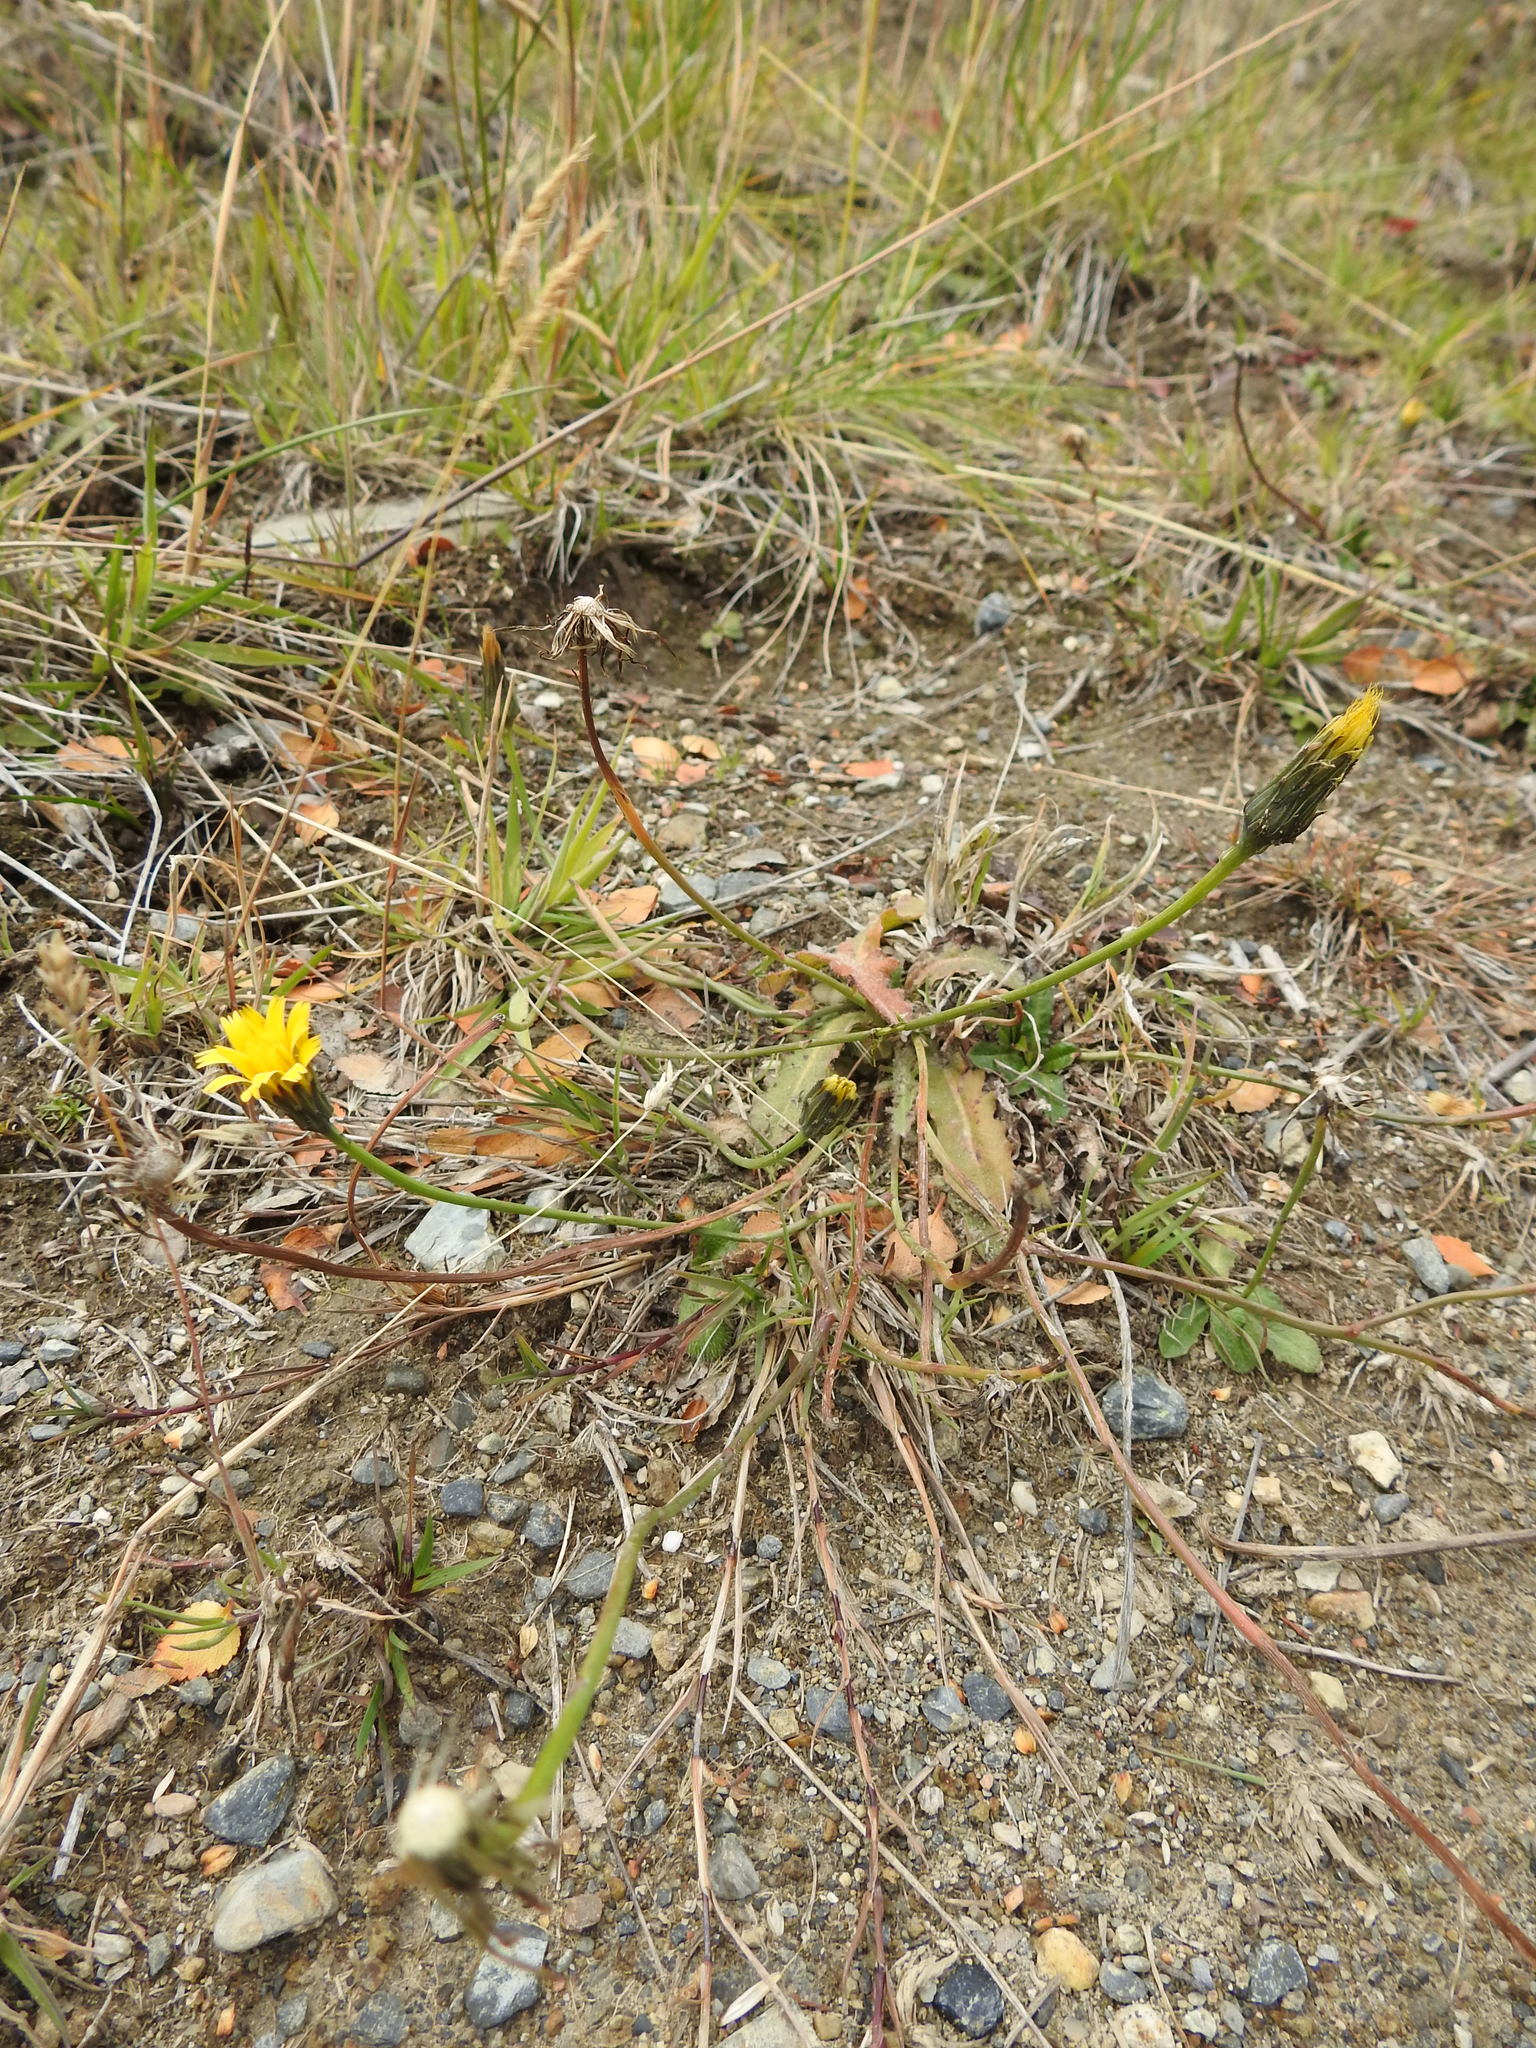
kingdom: Plantae
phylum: Tracheophyta
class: Magnoliopsida
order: Asterales
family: Asteraceae
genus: Hypochaeris
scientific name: Hypochaeris radicata
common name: Flatweed
